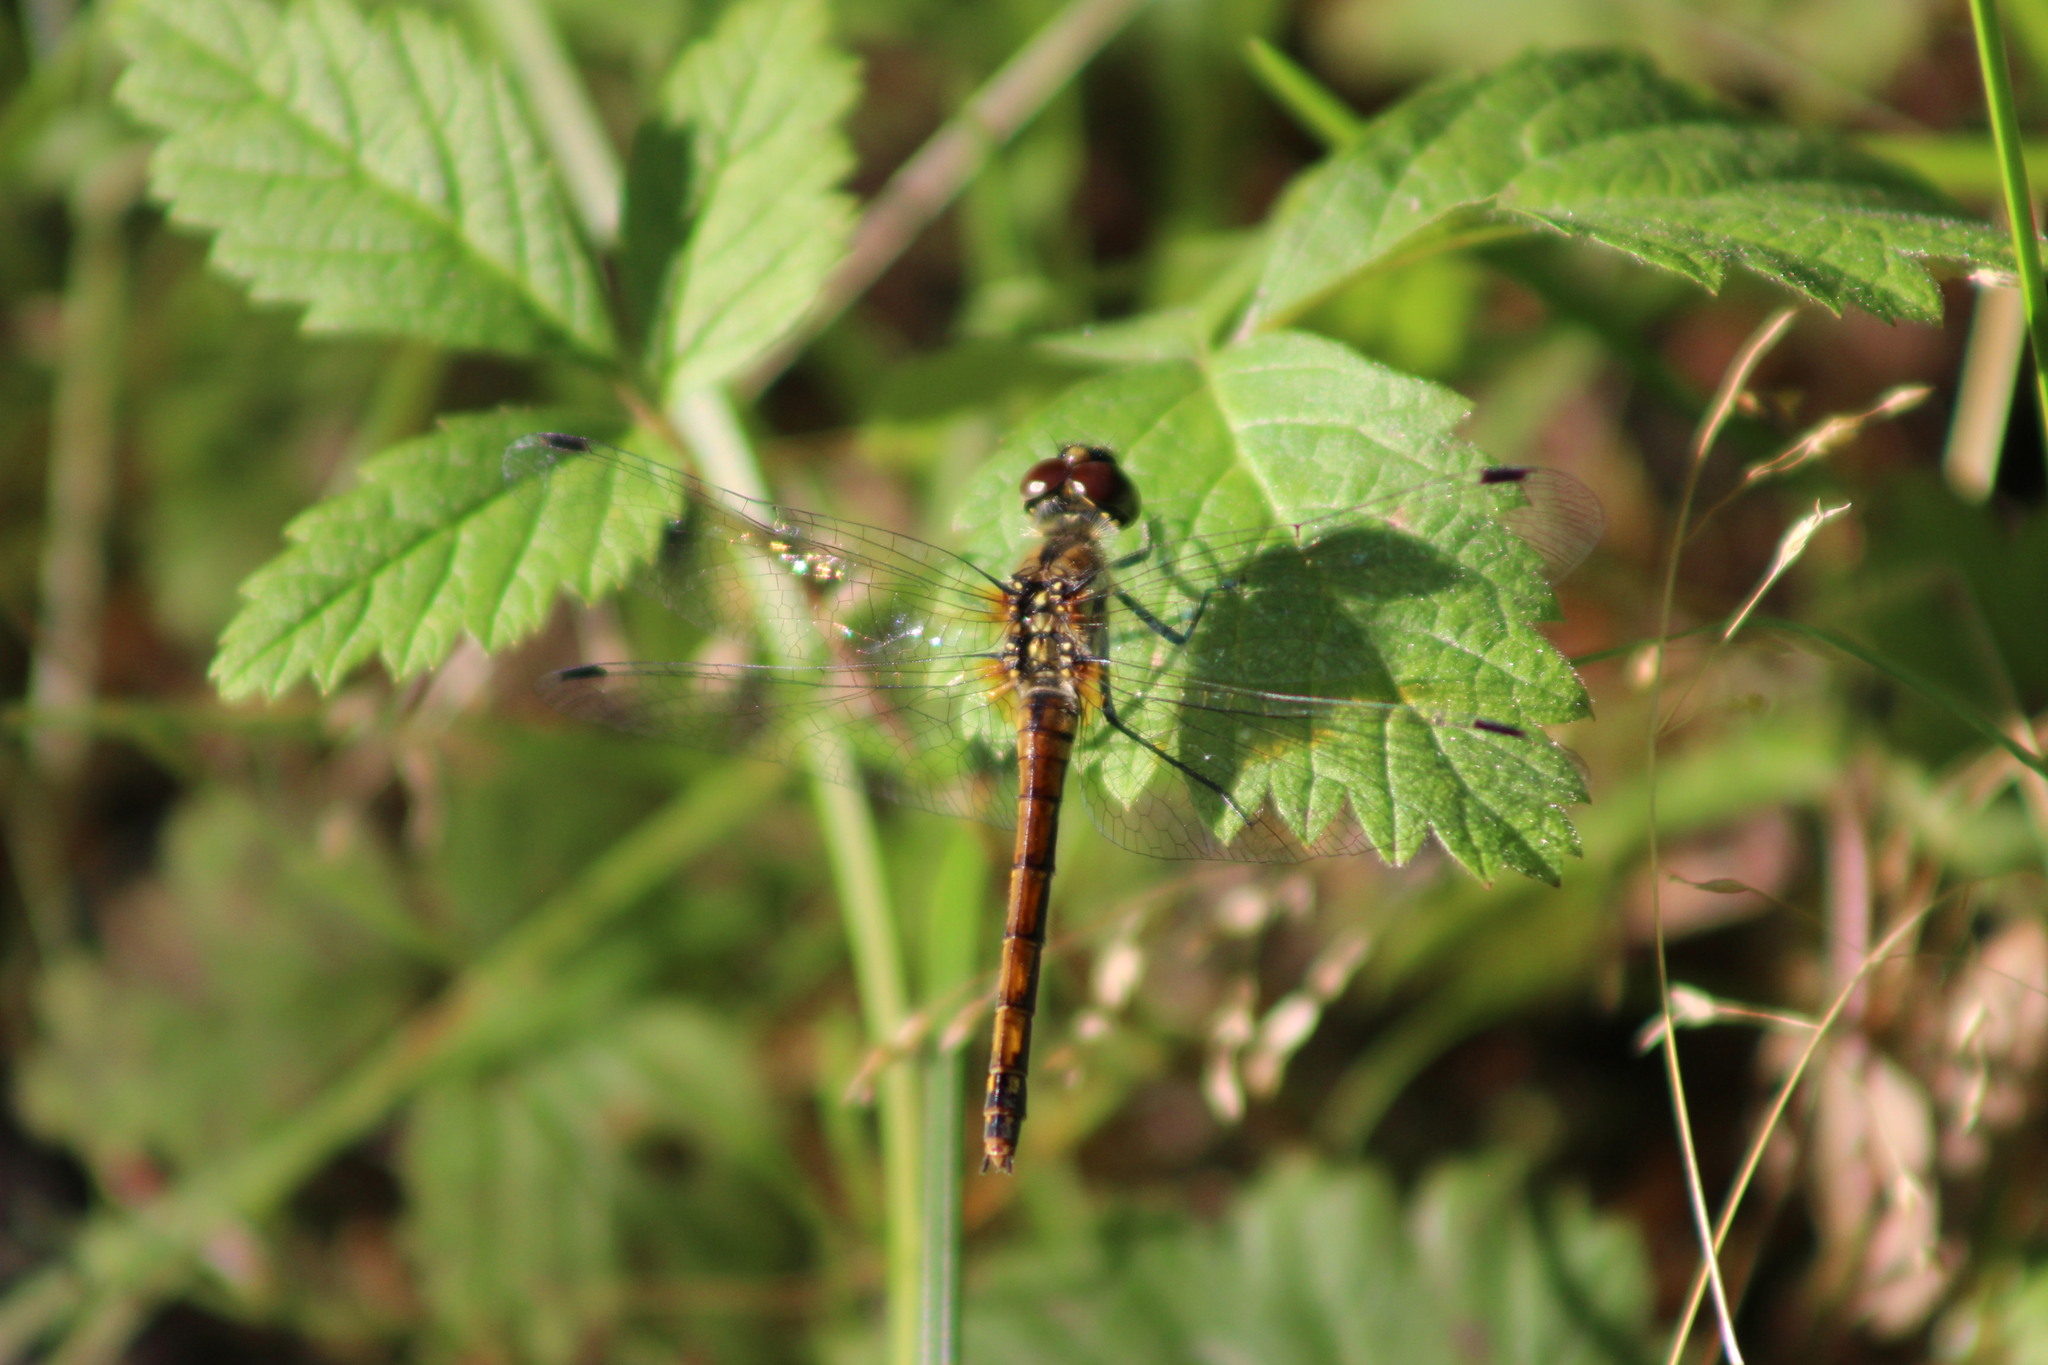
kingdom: Animalia
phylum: Arthropoda
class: Insecta
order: Odonata
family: Libellulidae
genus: Sympetrum
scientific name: Sympetrum danae
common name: Black darter
